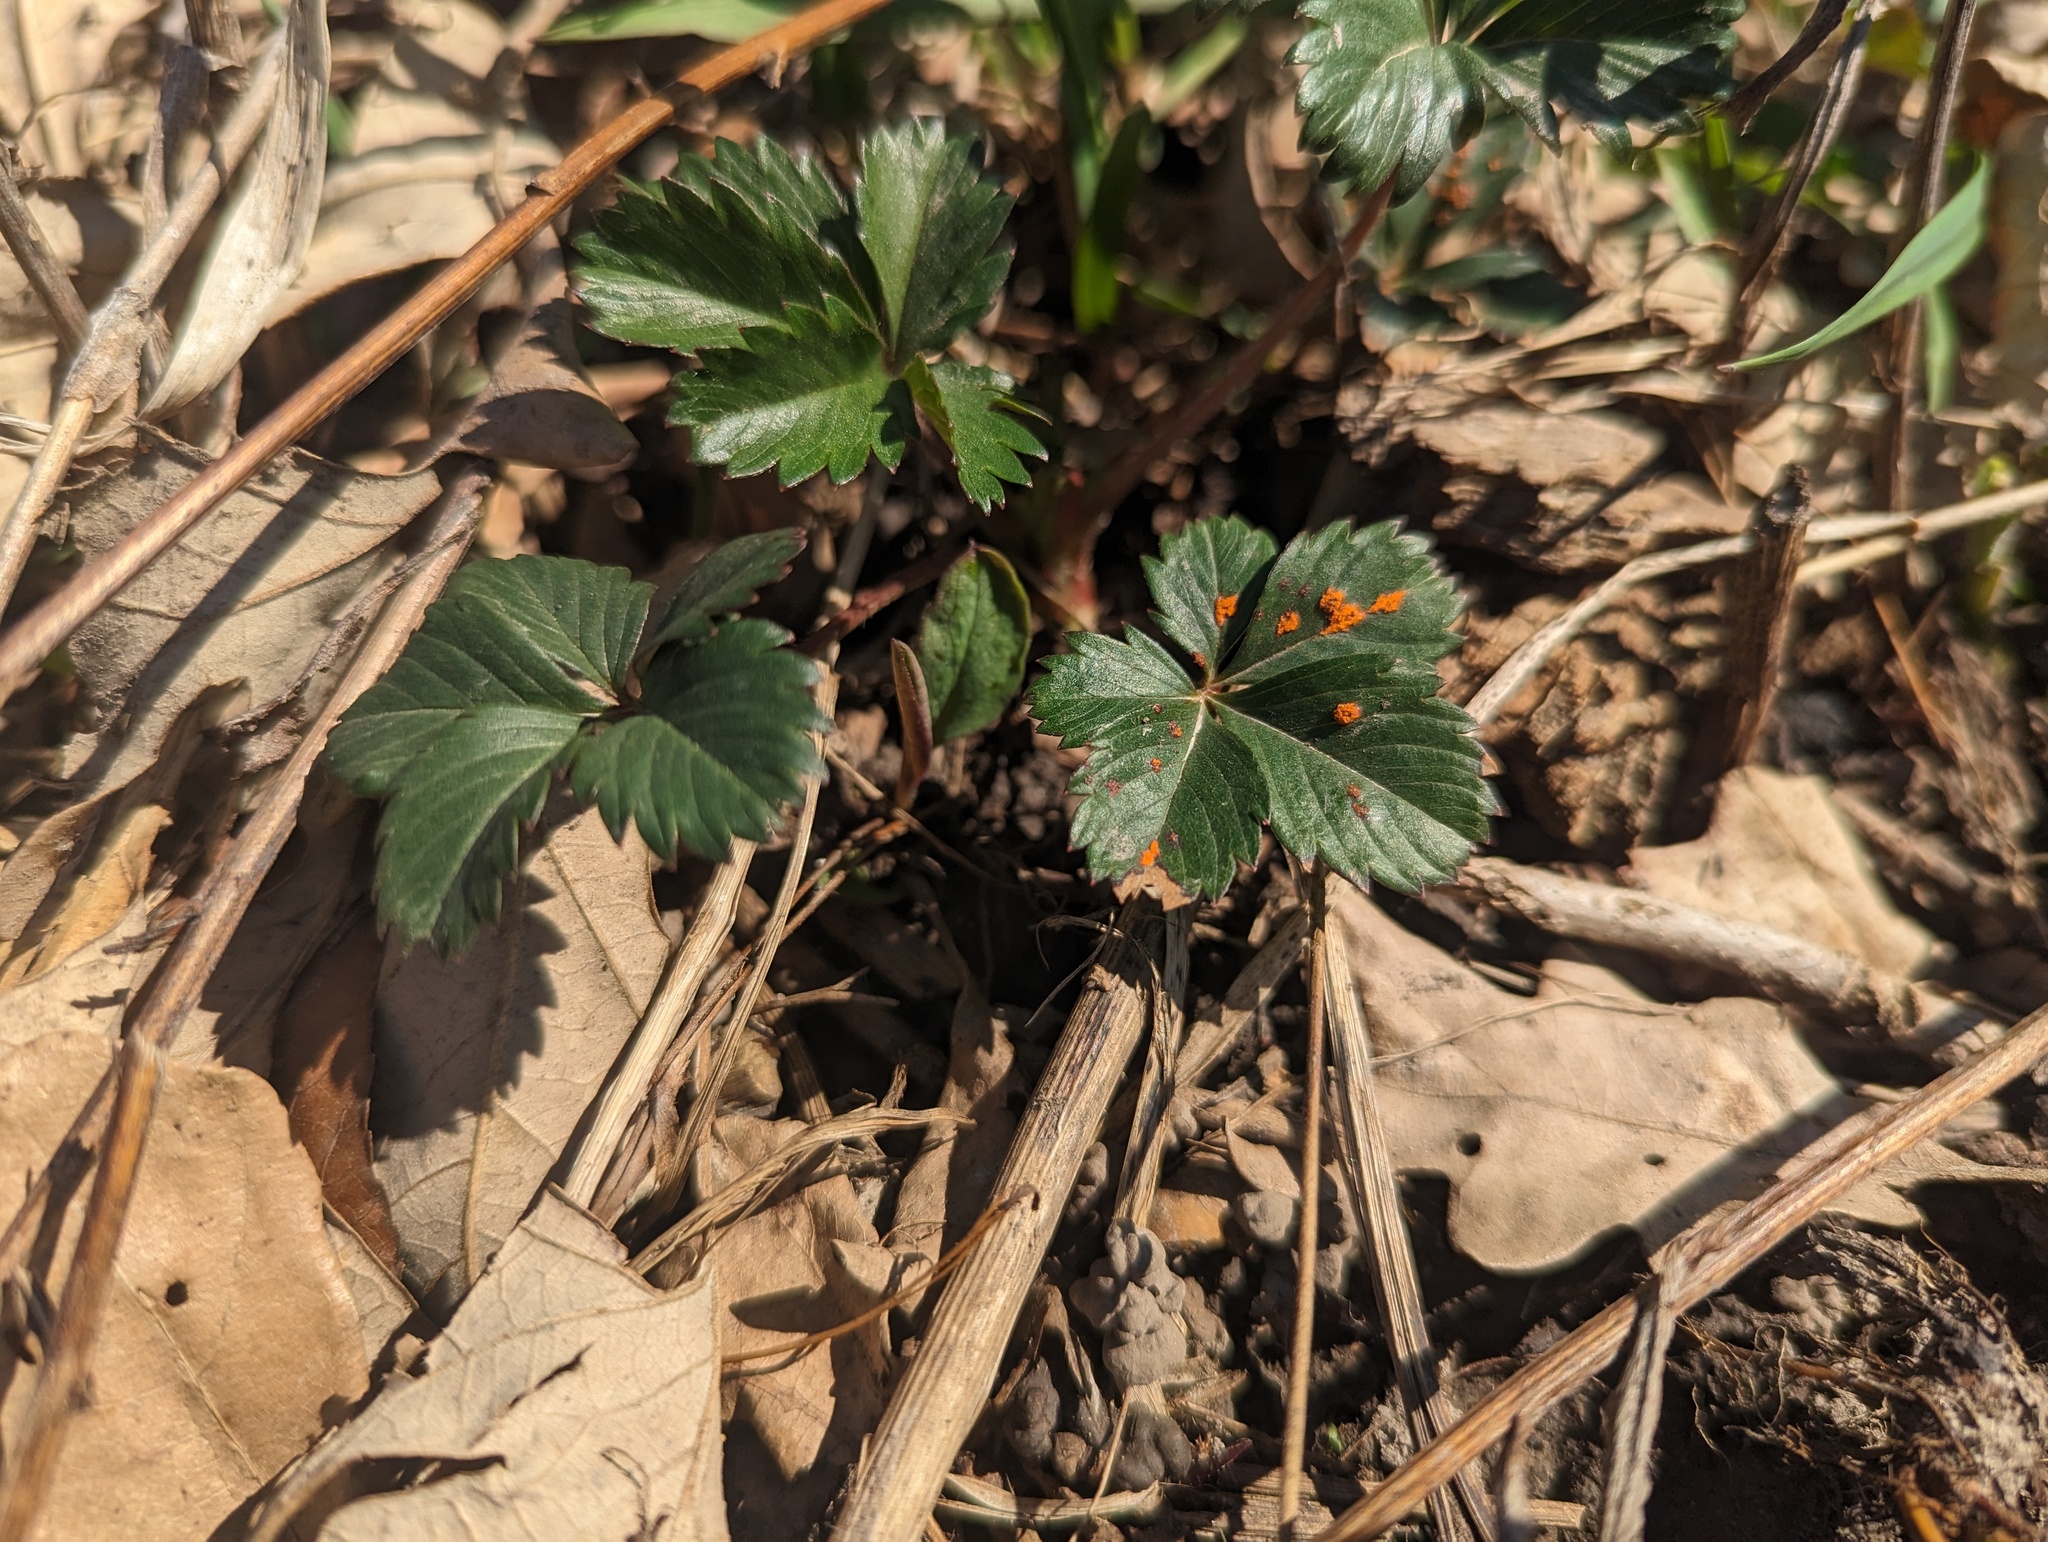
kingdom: Plantae
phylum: Tracheophyta
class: Magnoliopsida
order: Rosales
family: Rosaceae
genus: Potentilla
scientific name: Potentilla simplex
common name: Old field cinquefoil
